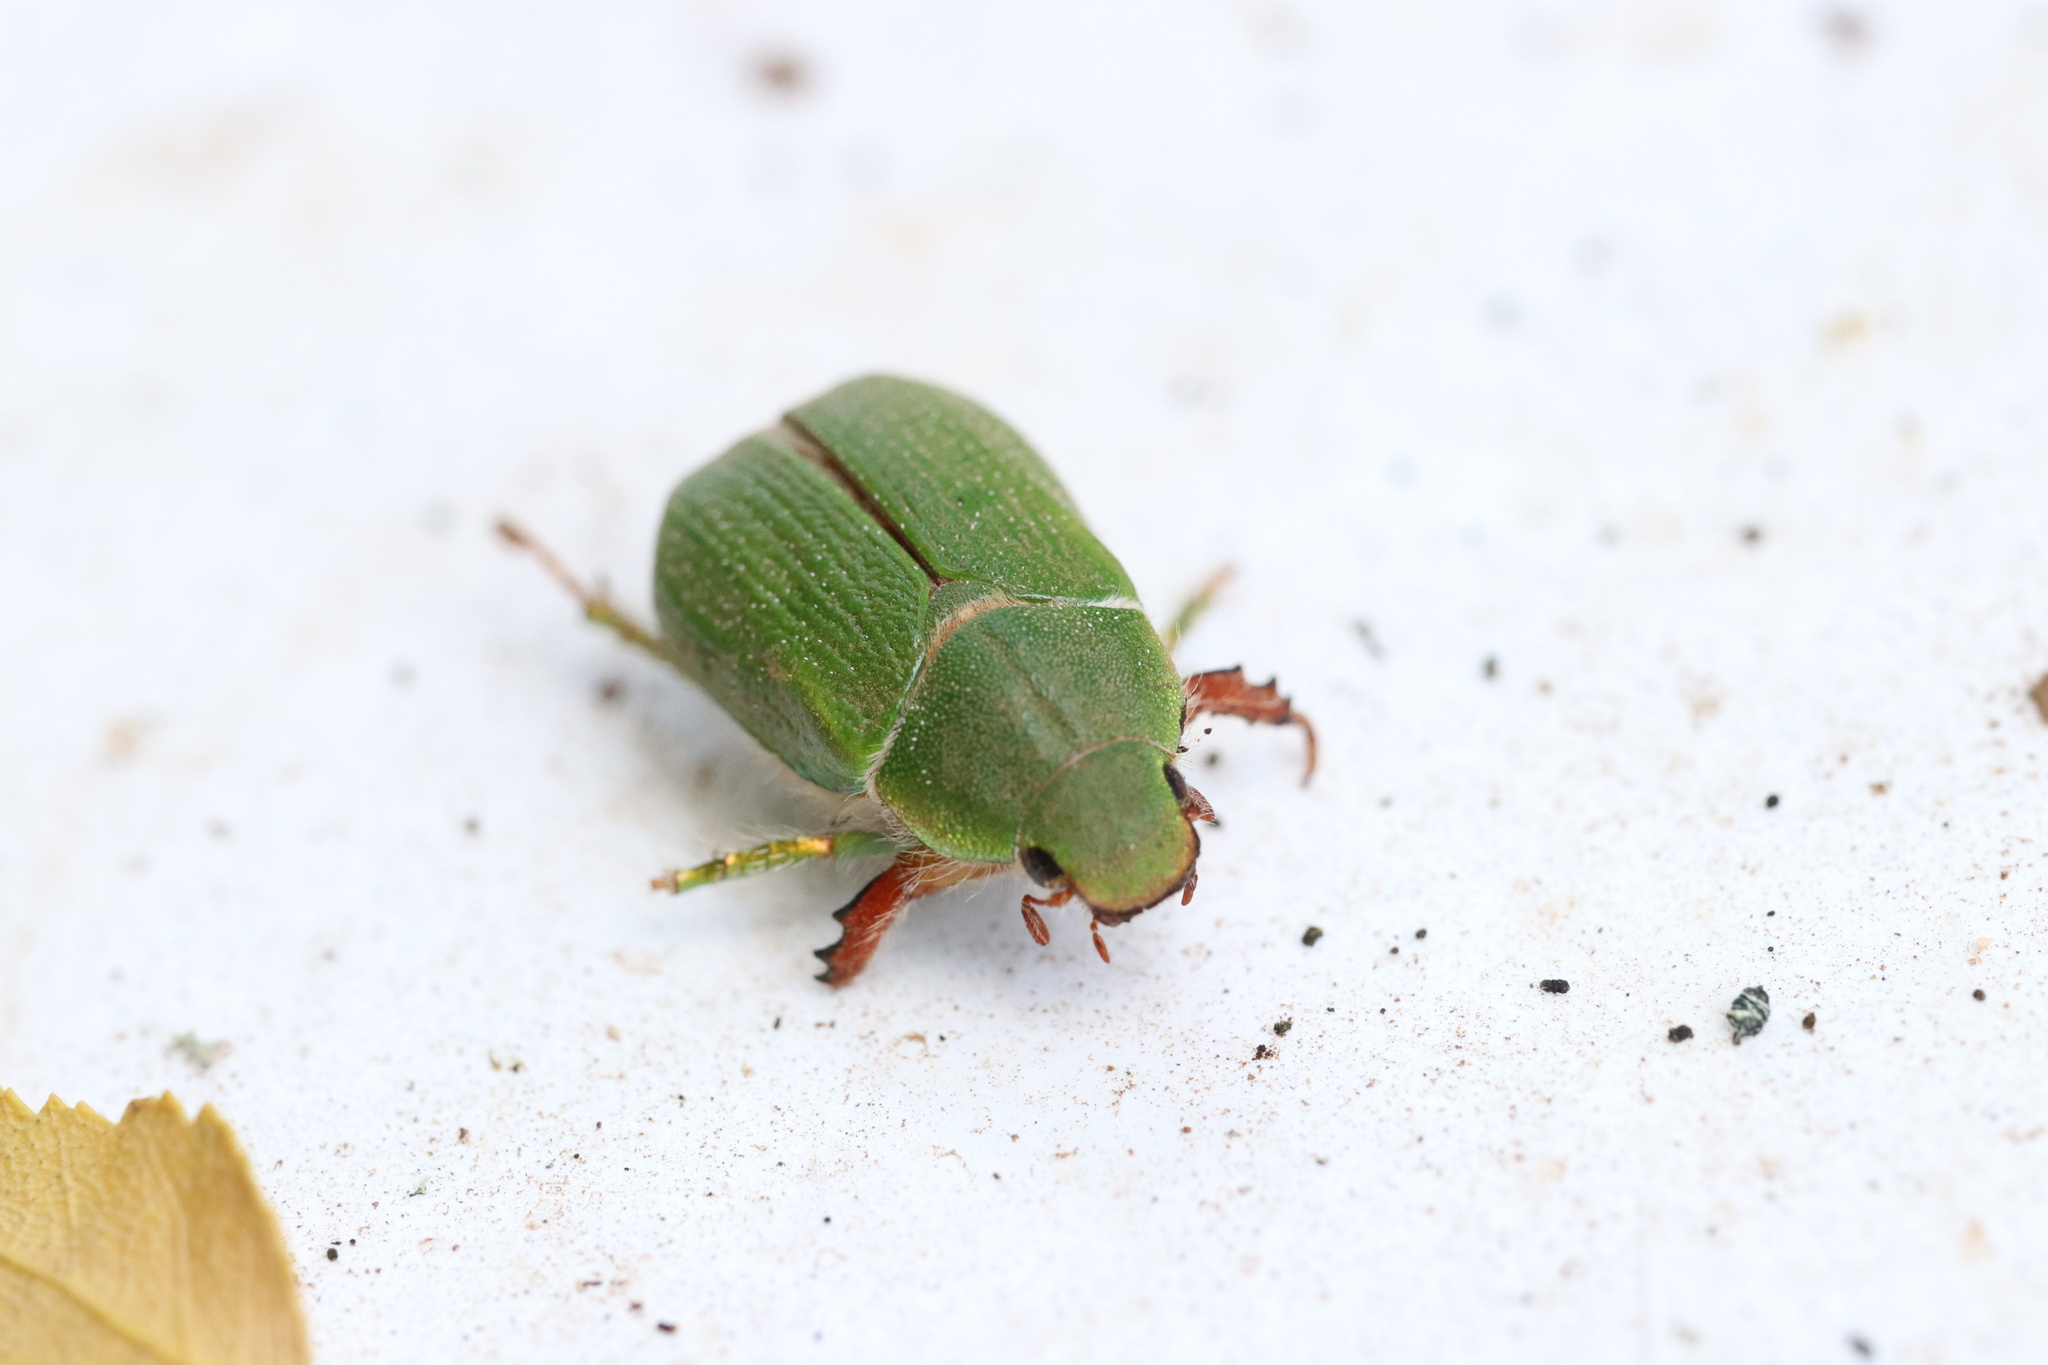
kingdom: Animalia
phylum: Arthropoda
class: Insecta
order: Coleoptera
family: Scarabaeidae
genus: Hylamorpha
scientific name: Hylamorpha elegans
